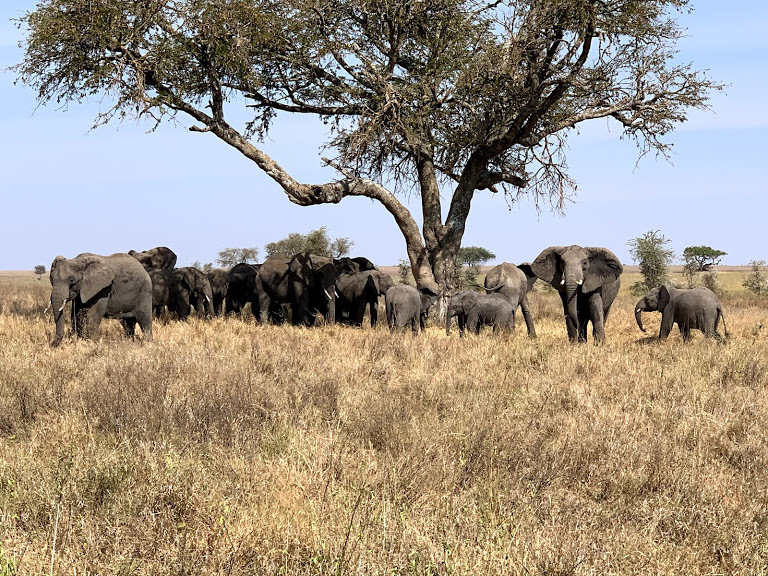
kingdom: Animalia
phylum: Chordata
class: Mammalia
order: Proboscidea
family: Elephantidae
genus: Loxodonta
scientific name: Loxodonta africana
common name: African elephant
